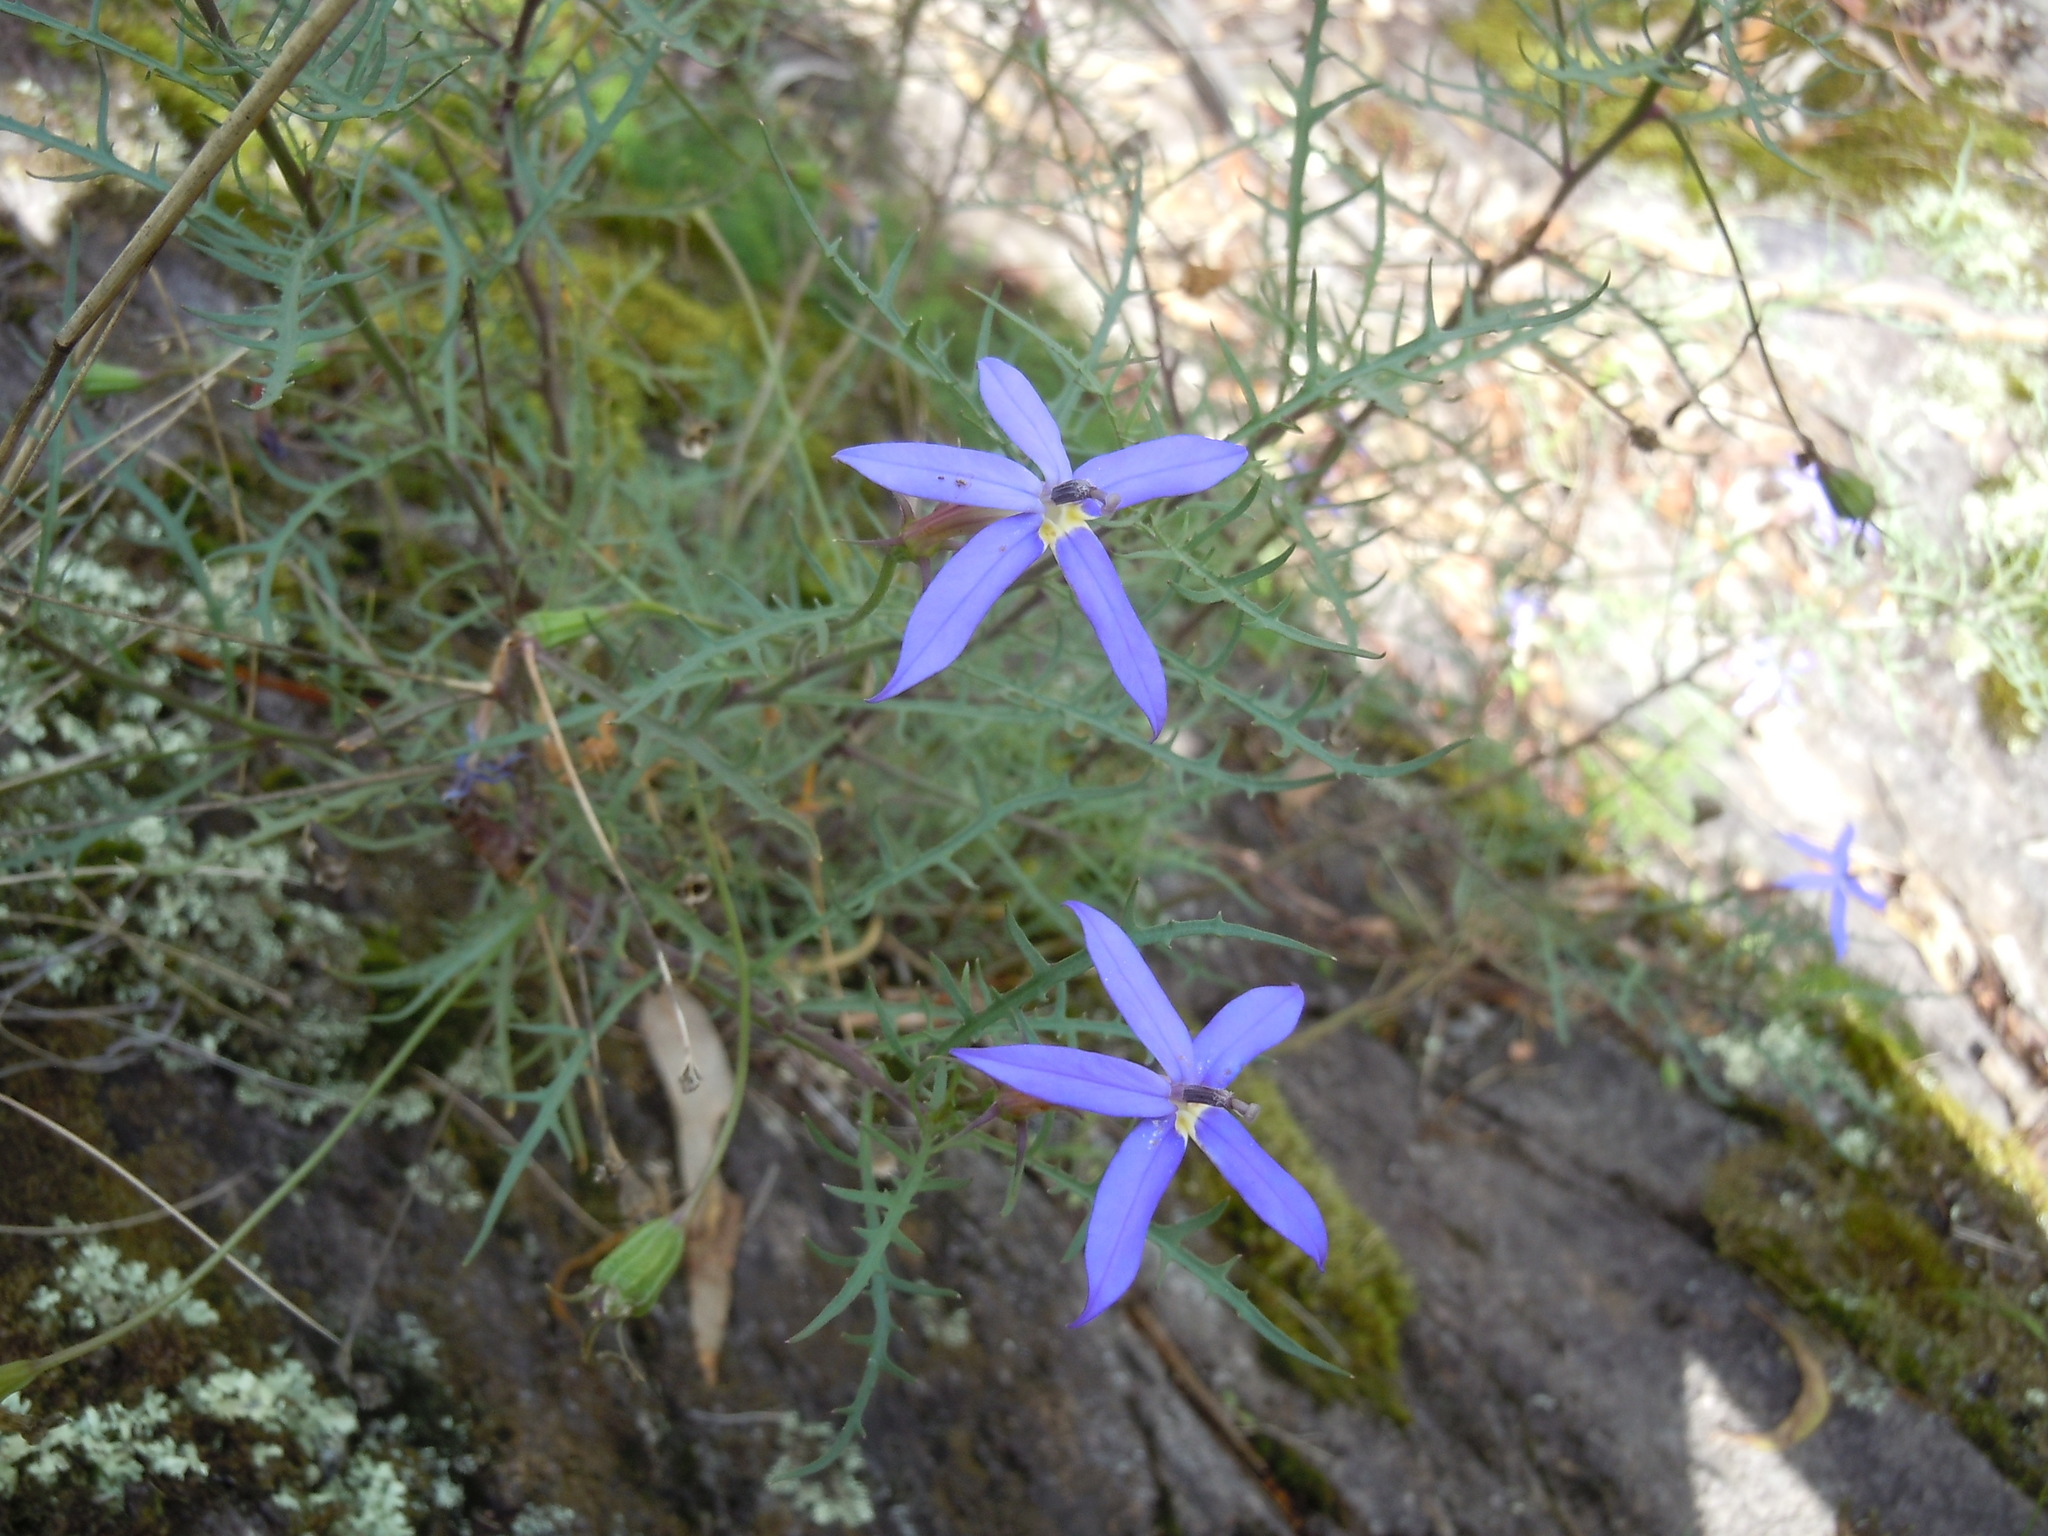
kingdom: Plantae
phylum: Tracheophyta
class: Magnoliopsida
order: Asterales
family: Campanulaceae
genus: Lithotoma
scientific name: Lithotoma axillaris
